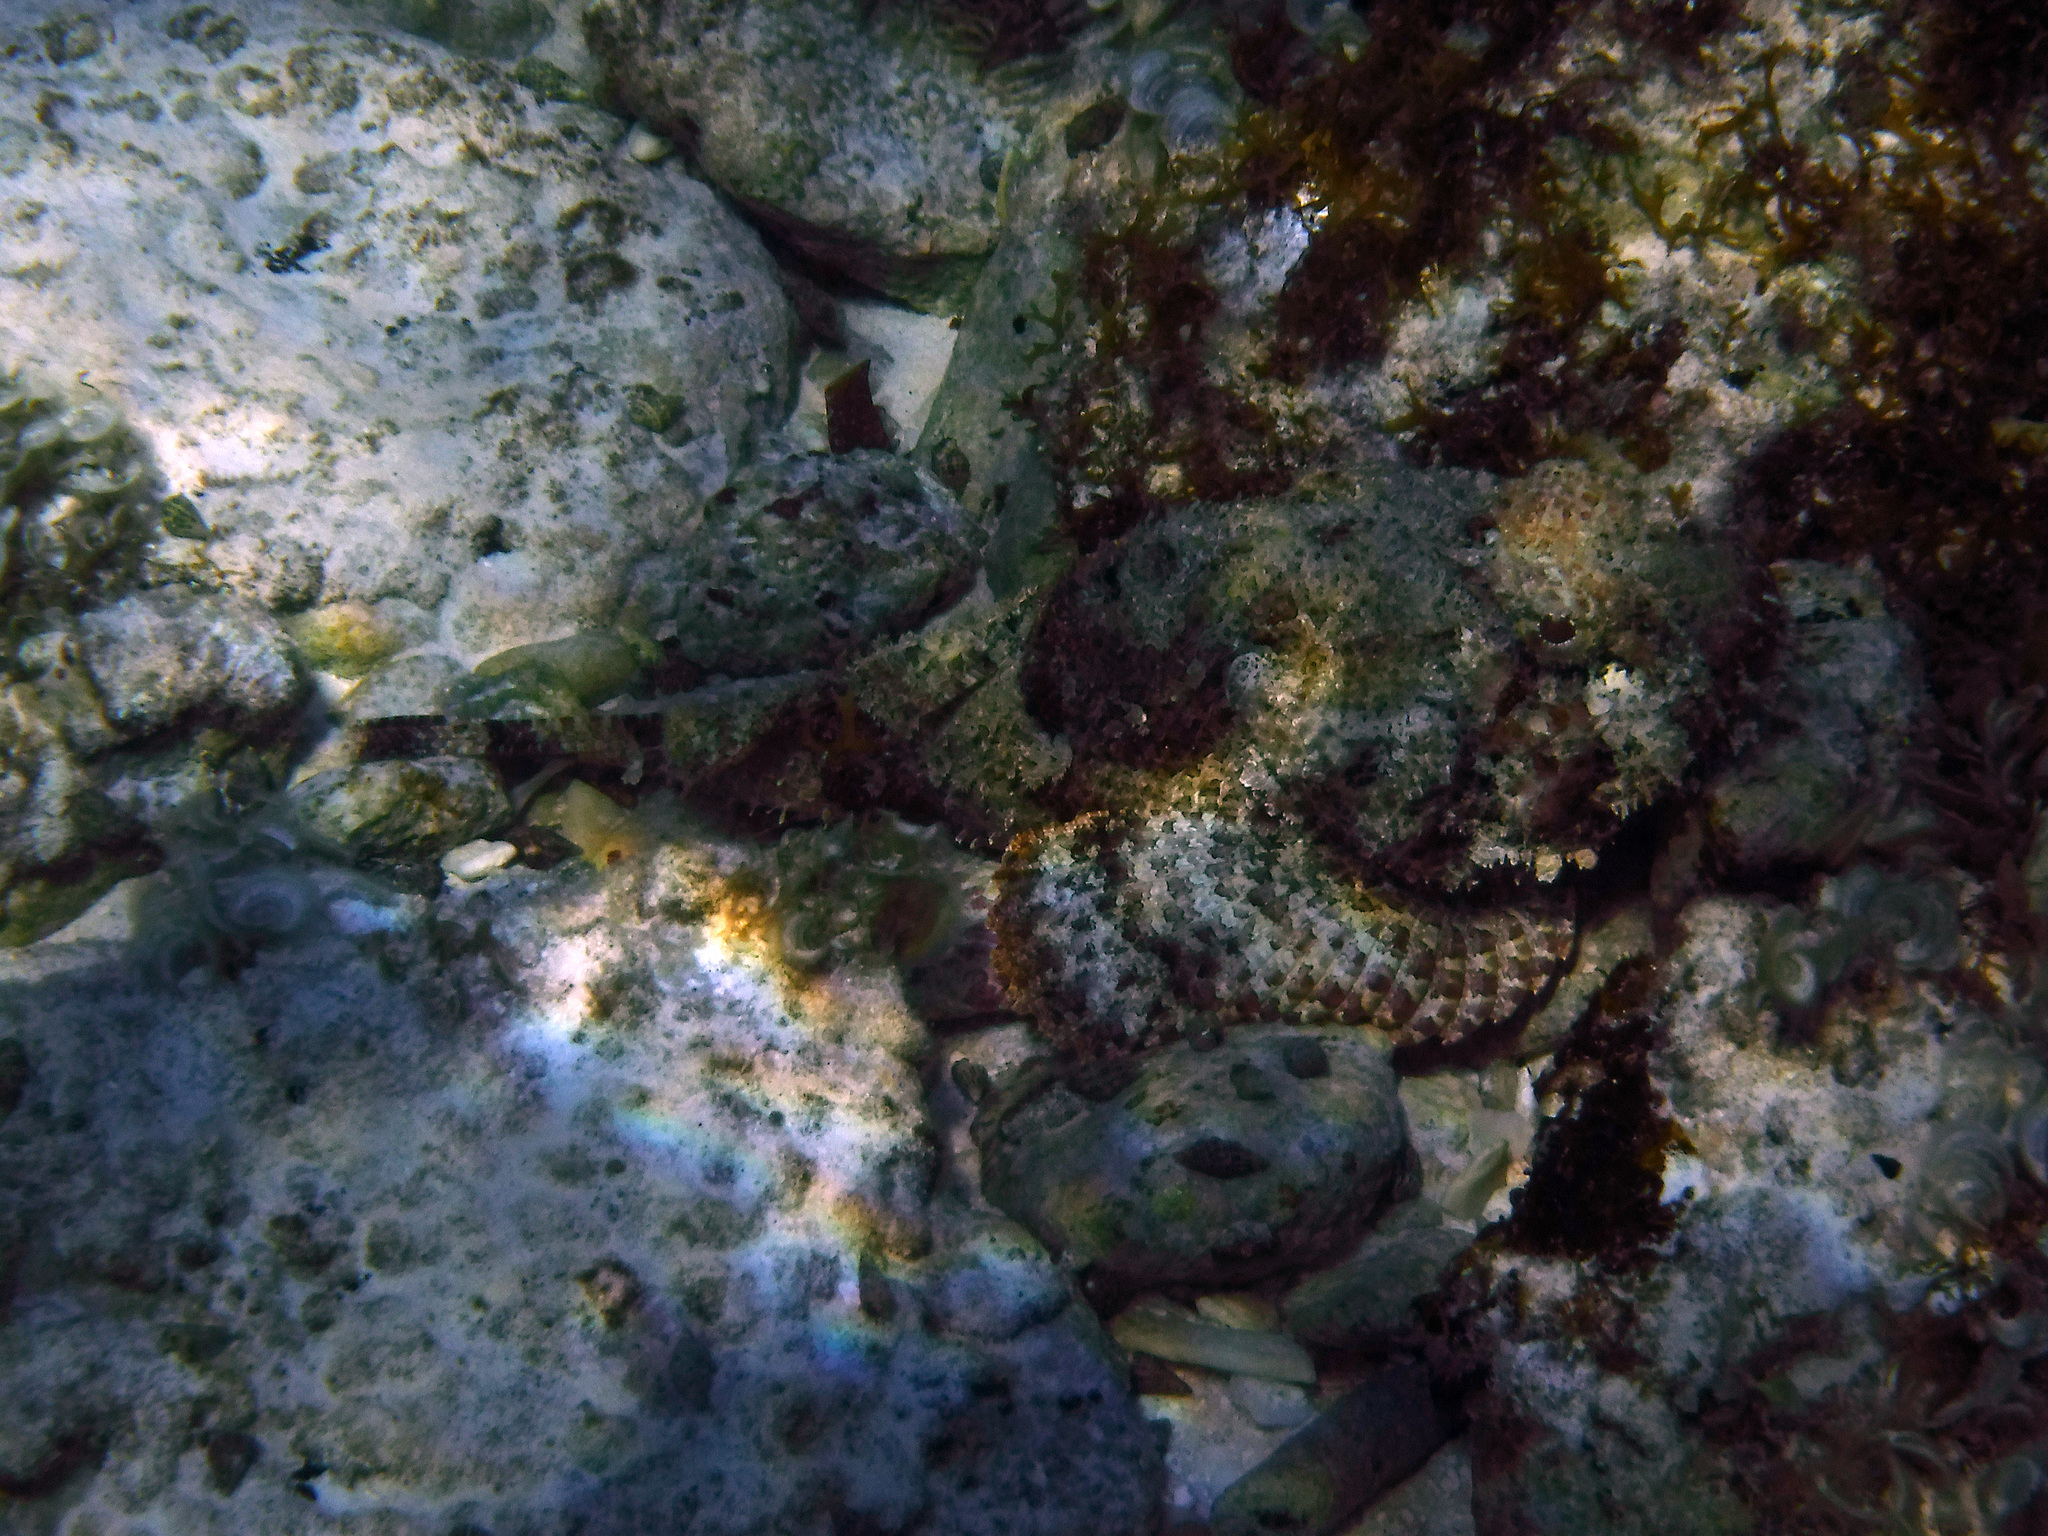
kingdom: Animalia
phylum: Chordata
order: Scorpaeniformes
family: Scorpaenidae
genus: Scorpaena
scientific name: Scorpaena plumieri
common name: Spotted scorpionfish
